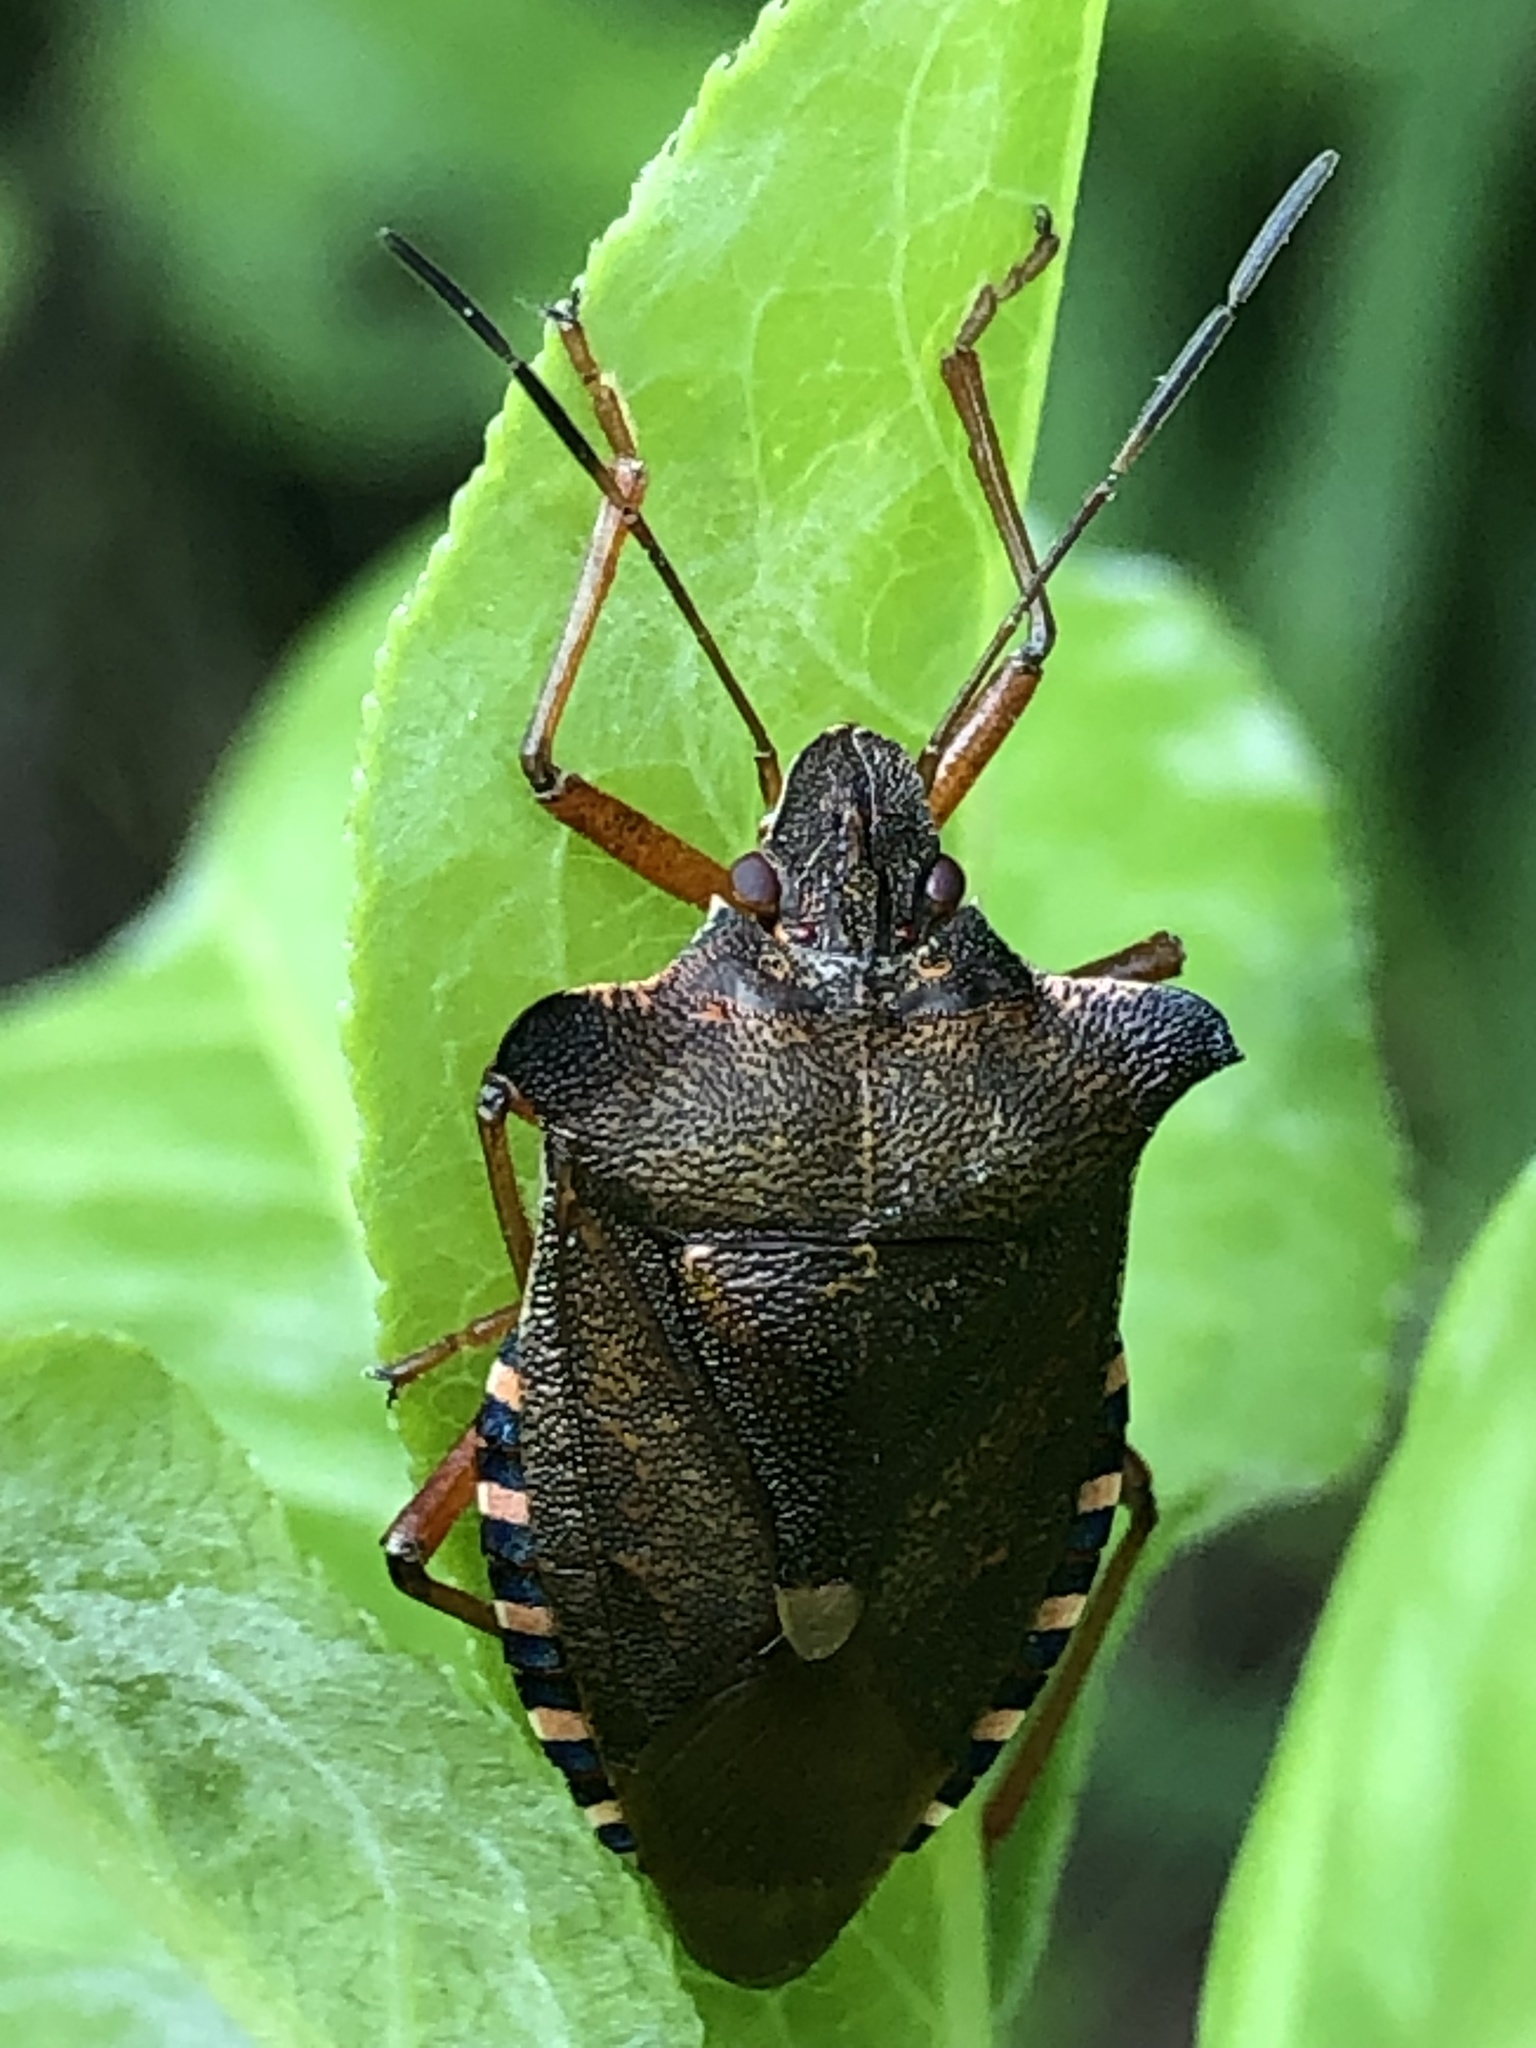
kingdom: Animalia
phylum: Arthropoda
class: Insecta
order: Hemiptera
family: Pentatomidae
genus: Pentatoma
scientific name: Pentatoma rufipes
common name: Forest bug
